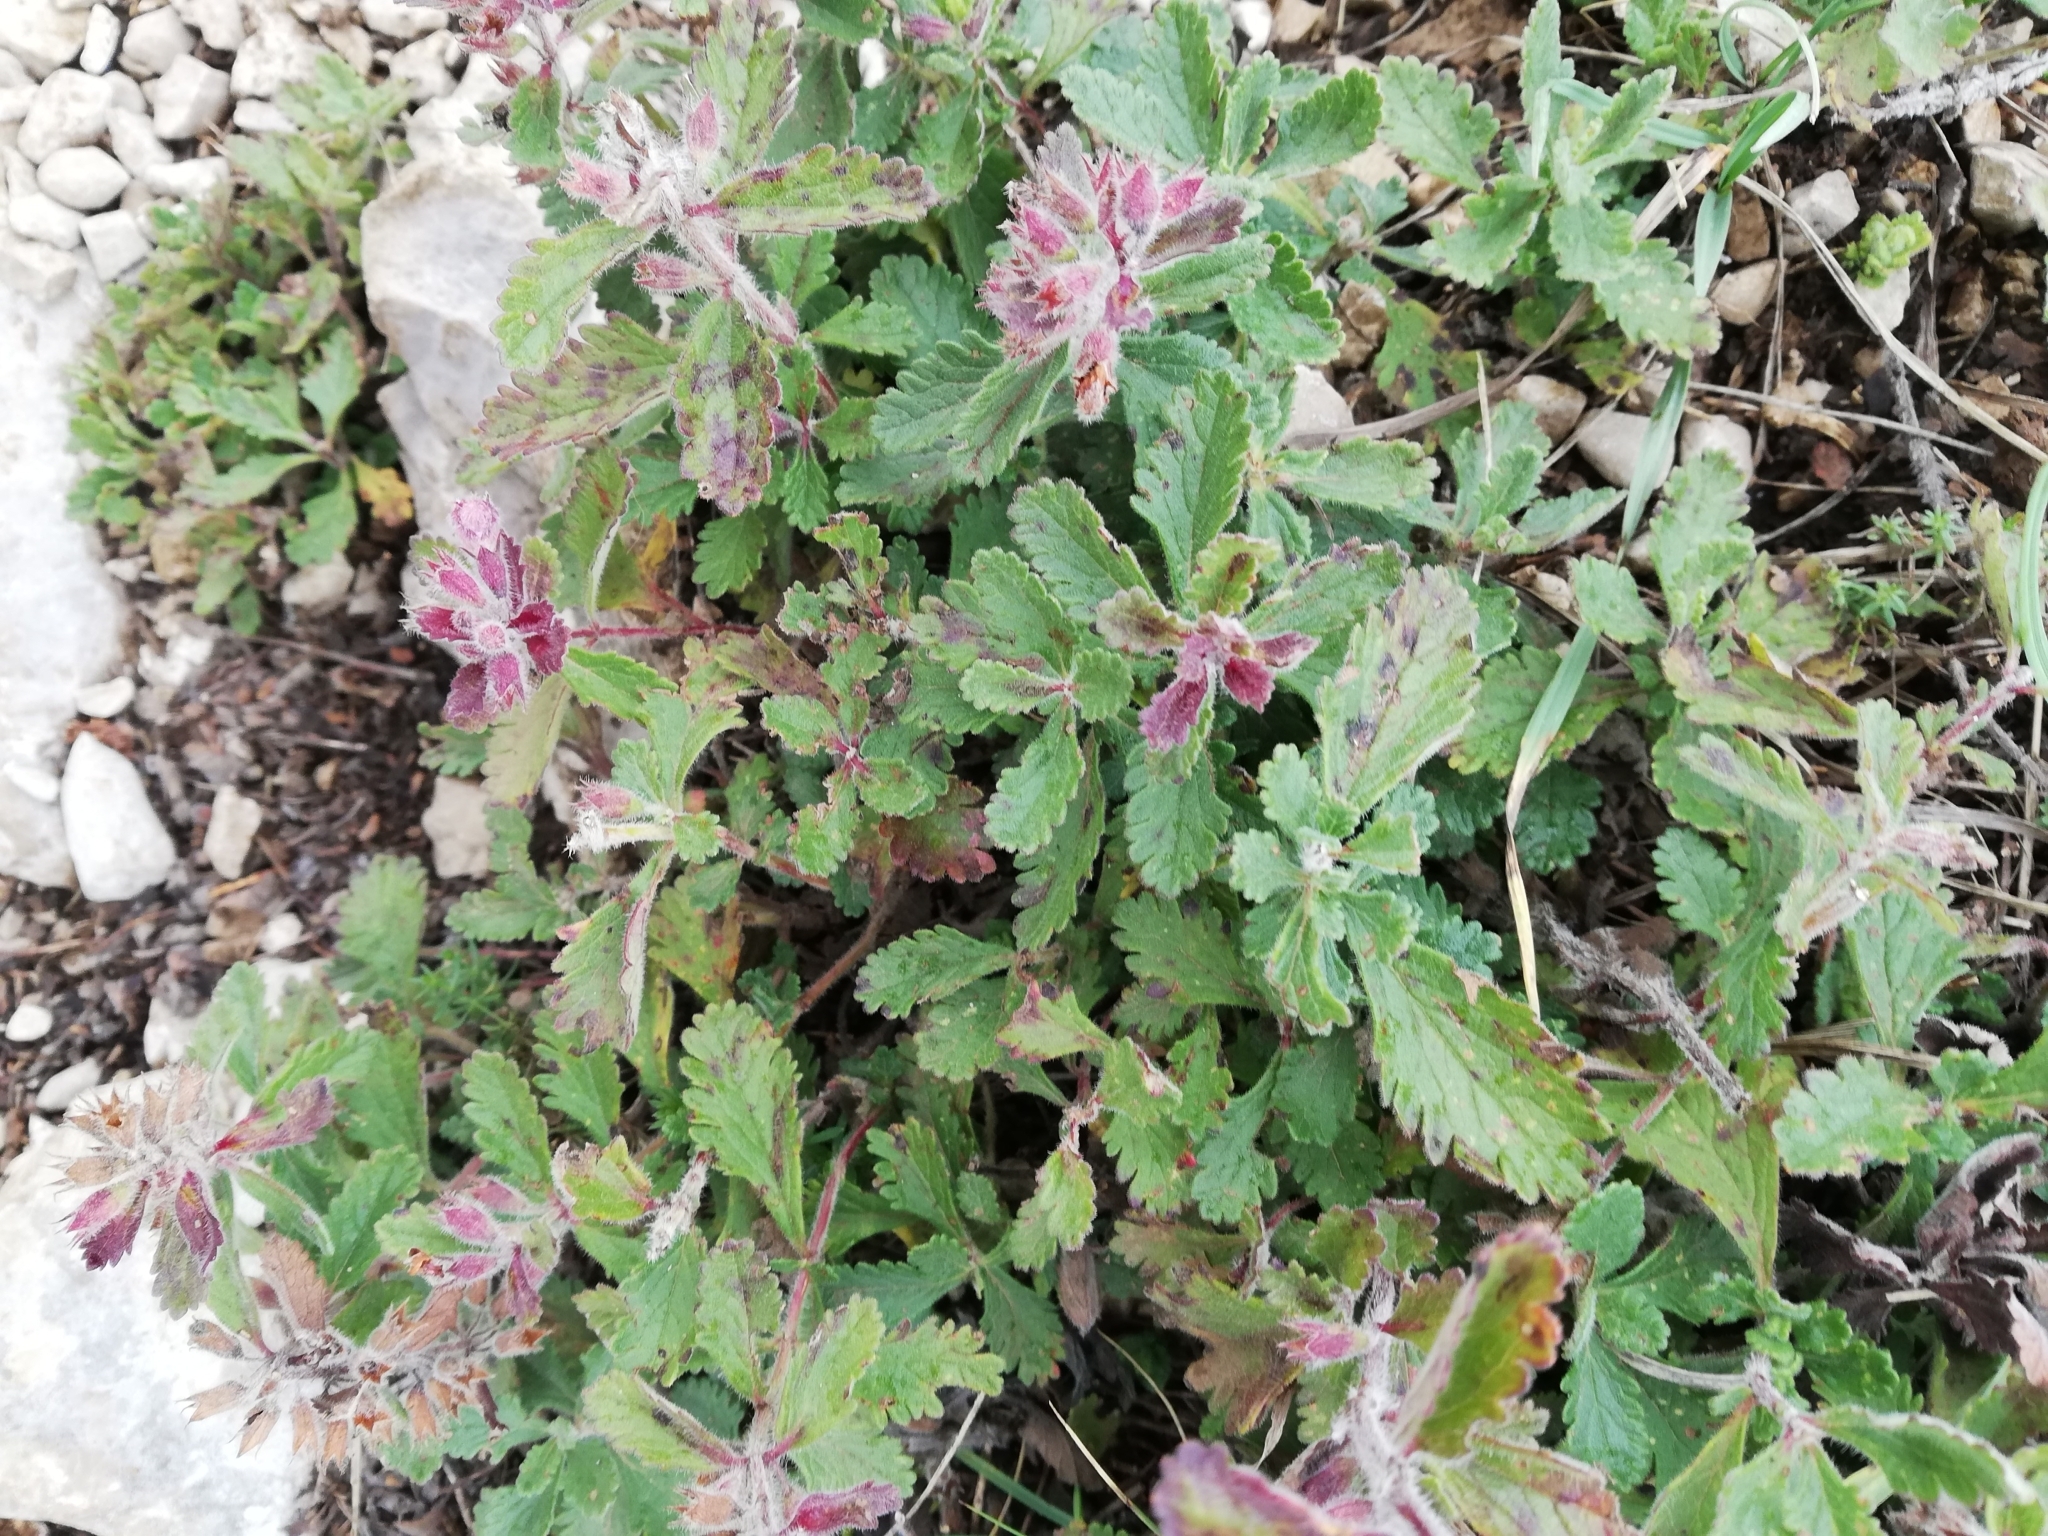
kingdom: Plantae
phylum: Tracheophyta
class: Magnoliopsida
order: Lamiales
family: Lamiaceae
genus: Teucrium
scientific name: Teucrium chamaedrys
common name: Wall germander
